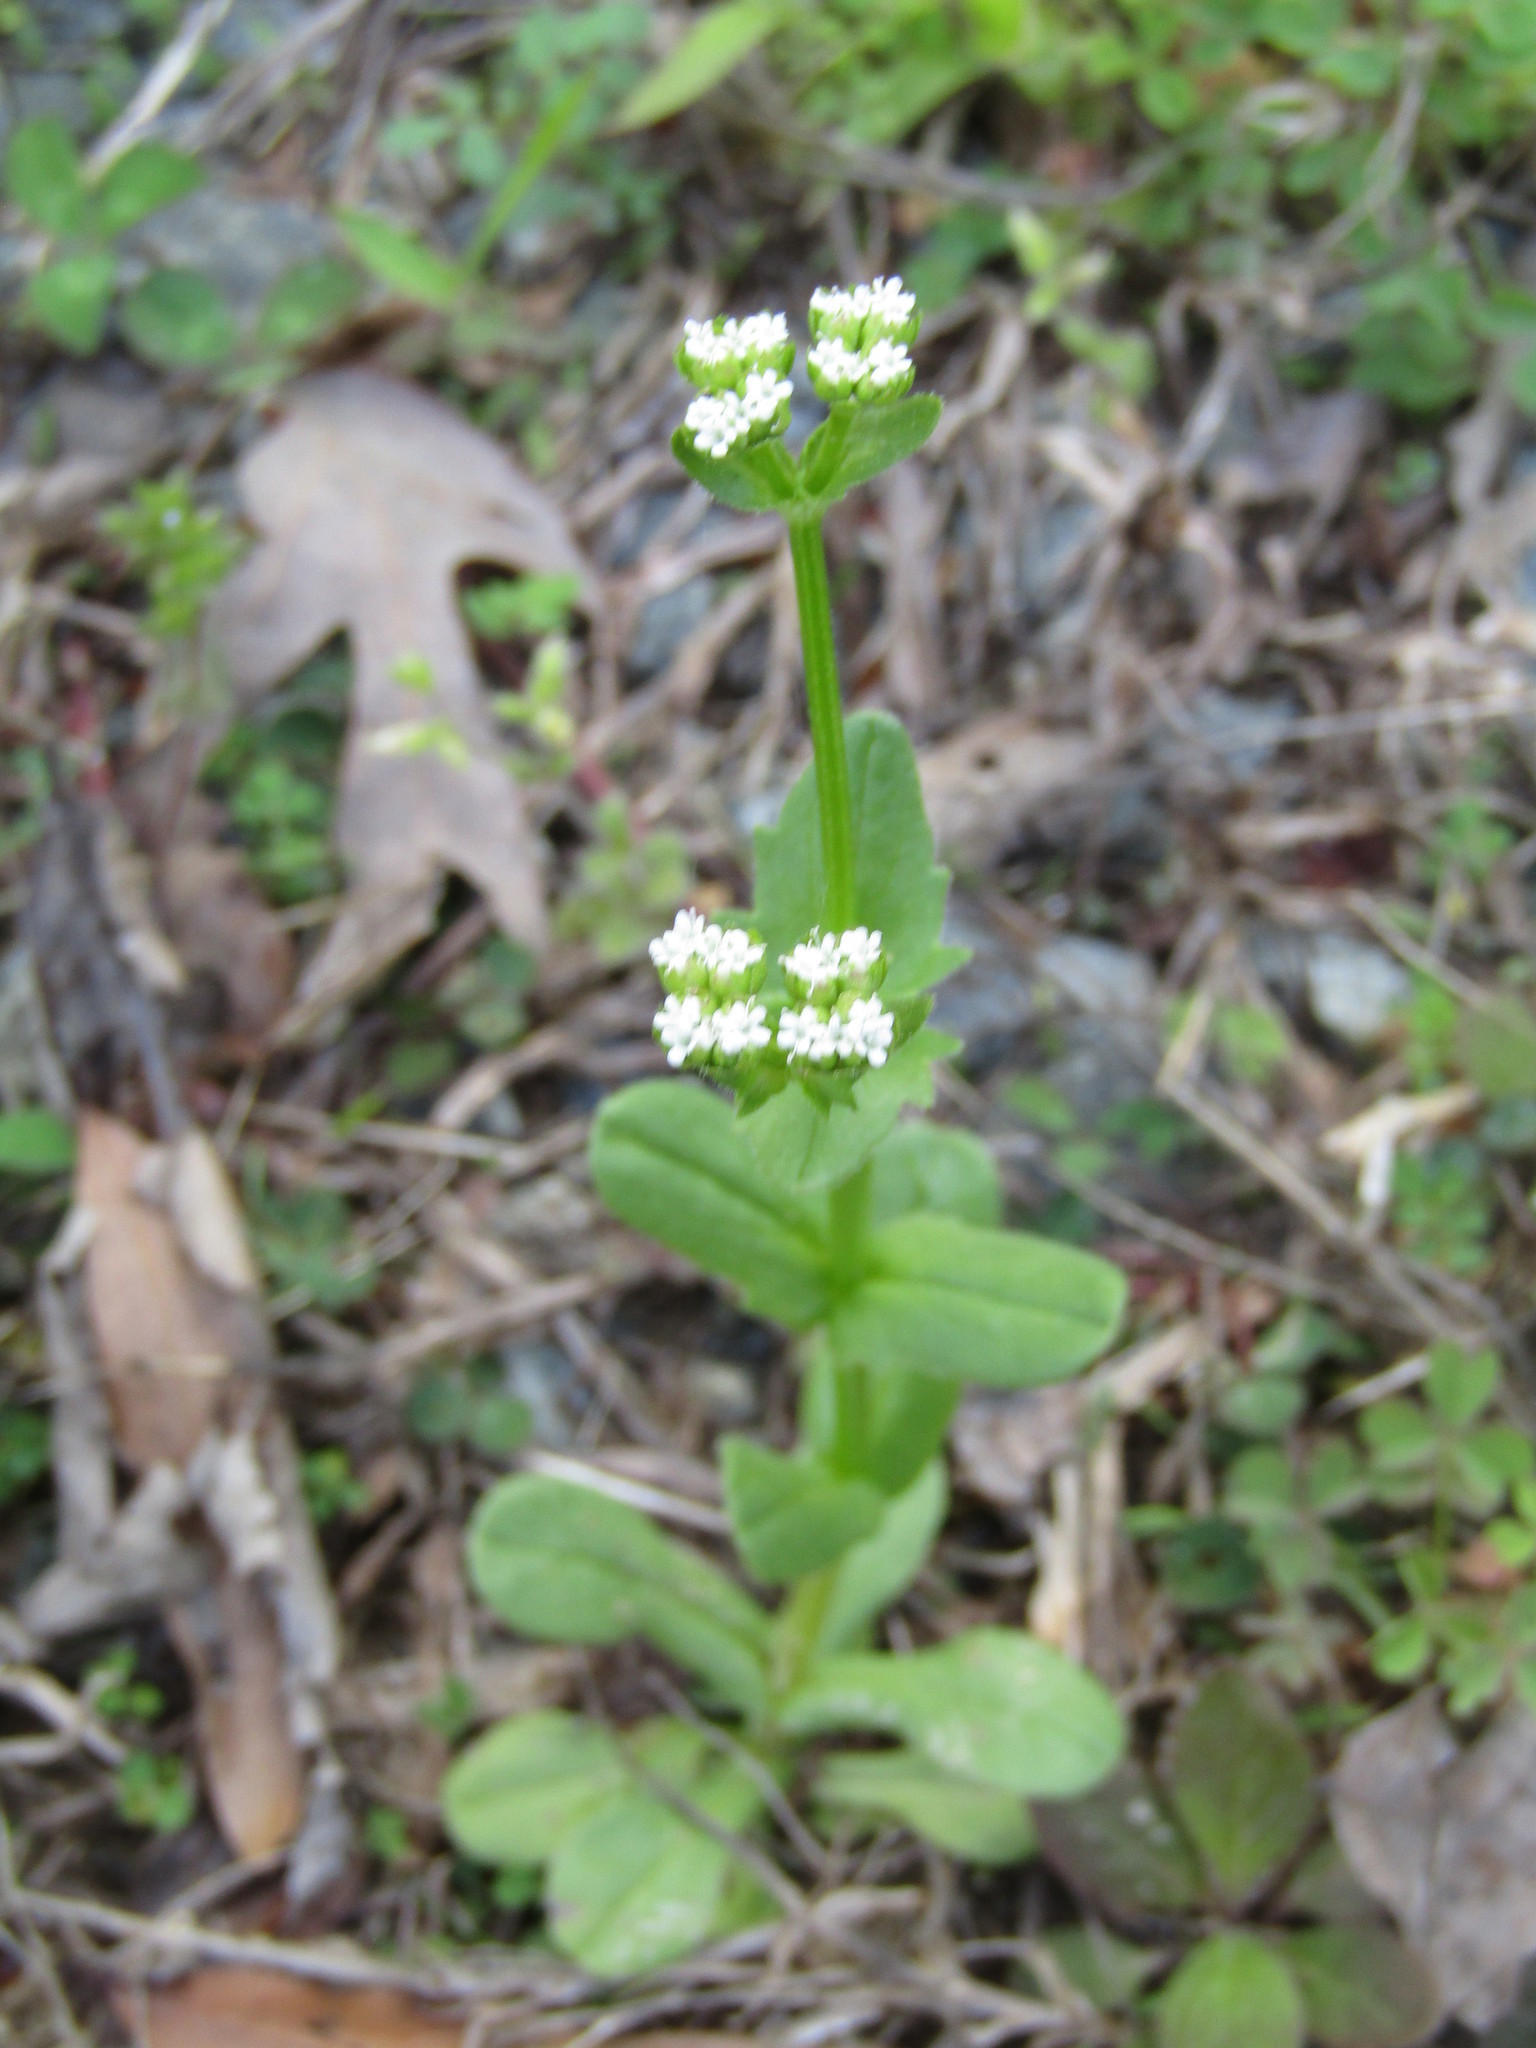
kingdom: Plantae
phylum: Tracheophyta
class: Magnoliopsida
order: Dipsacales
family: Caprifoliaceae
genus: Valerianella
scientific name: Valerianella radiata
